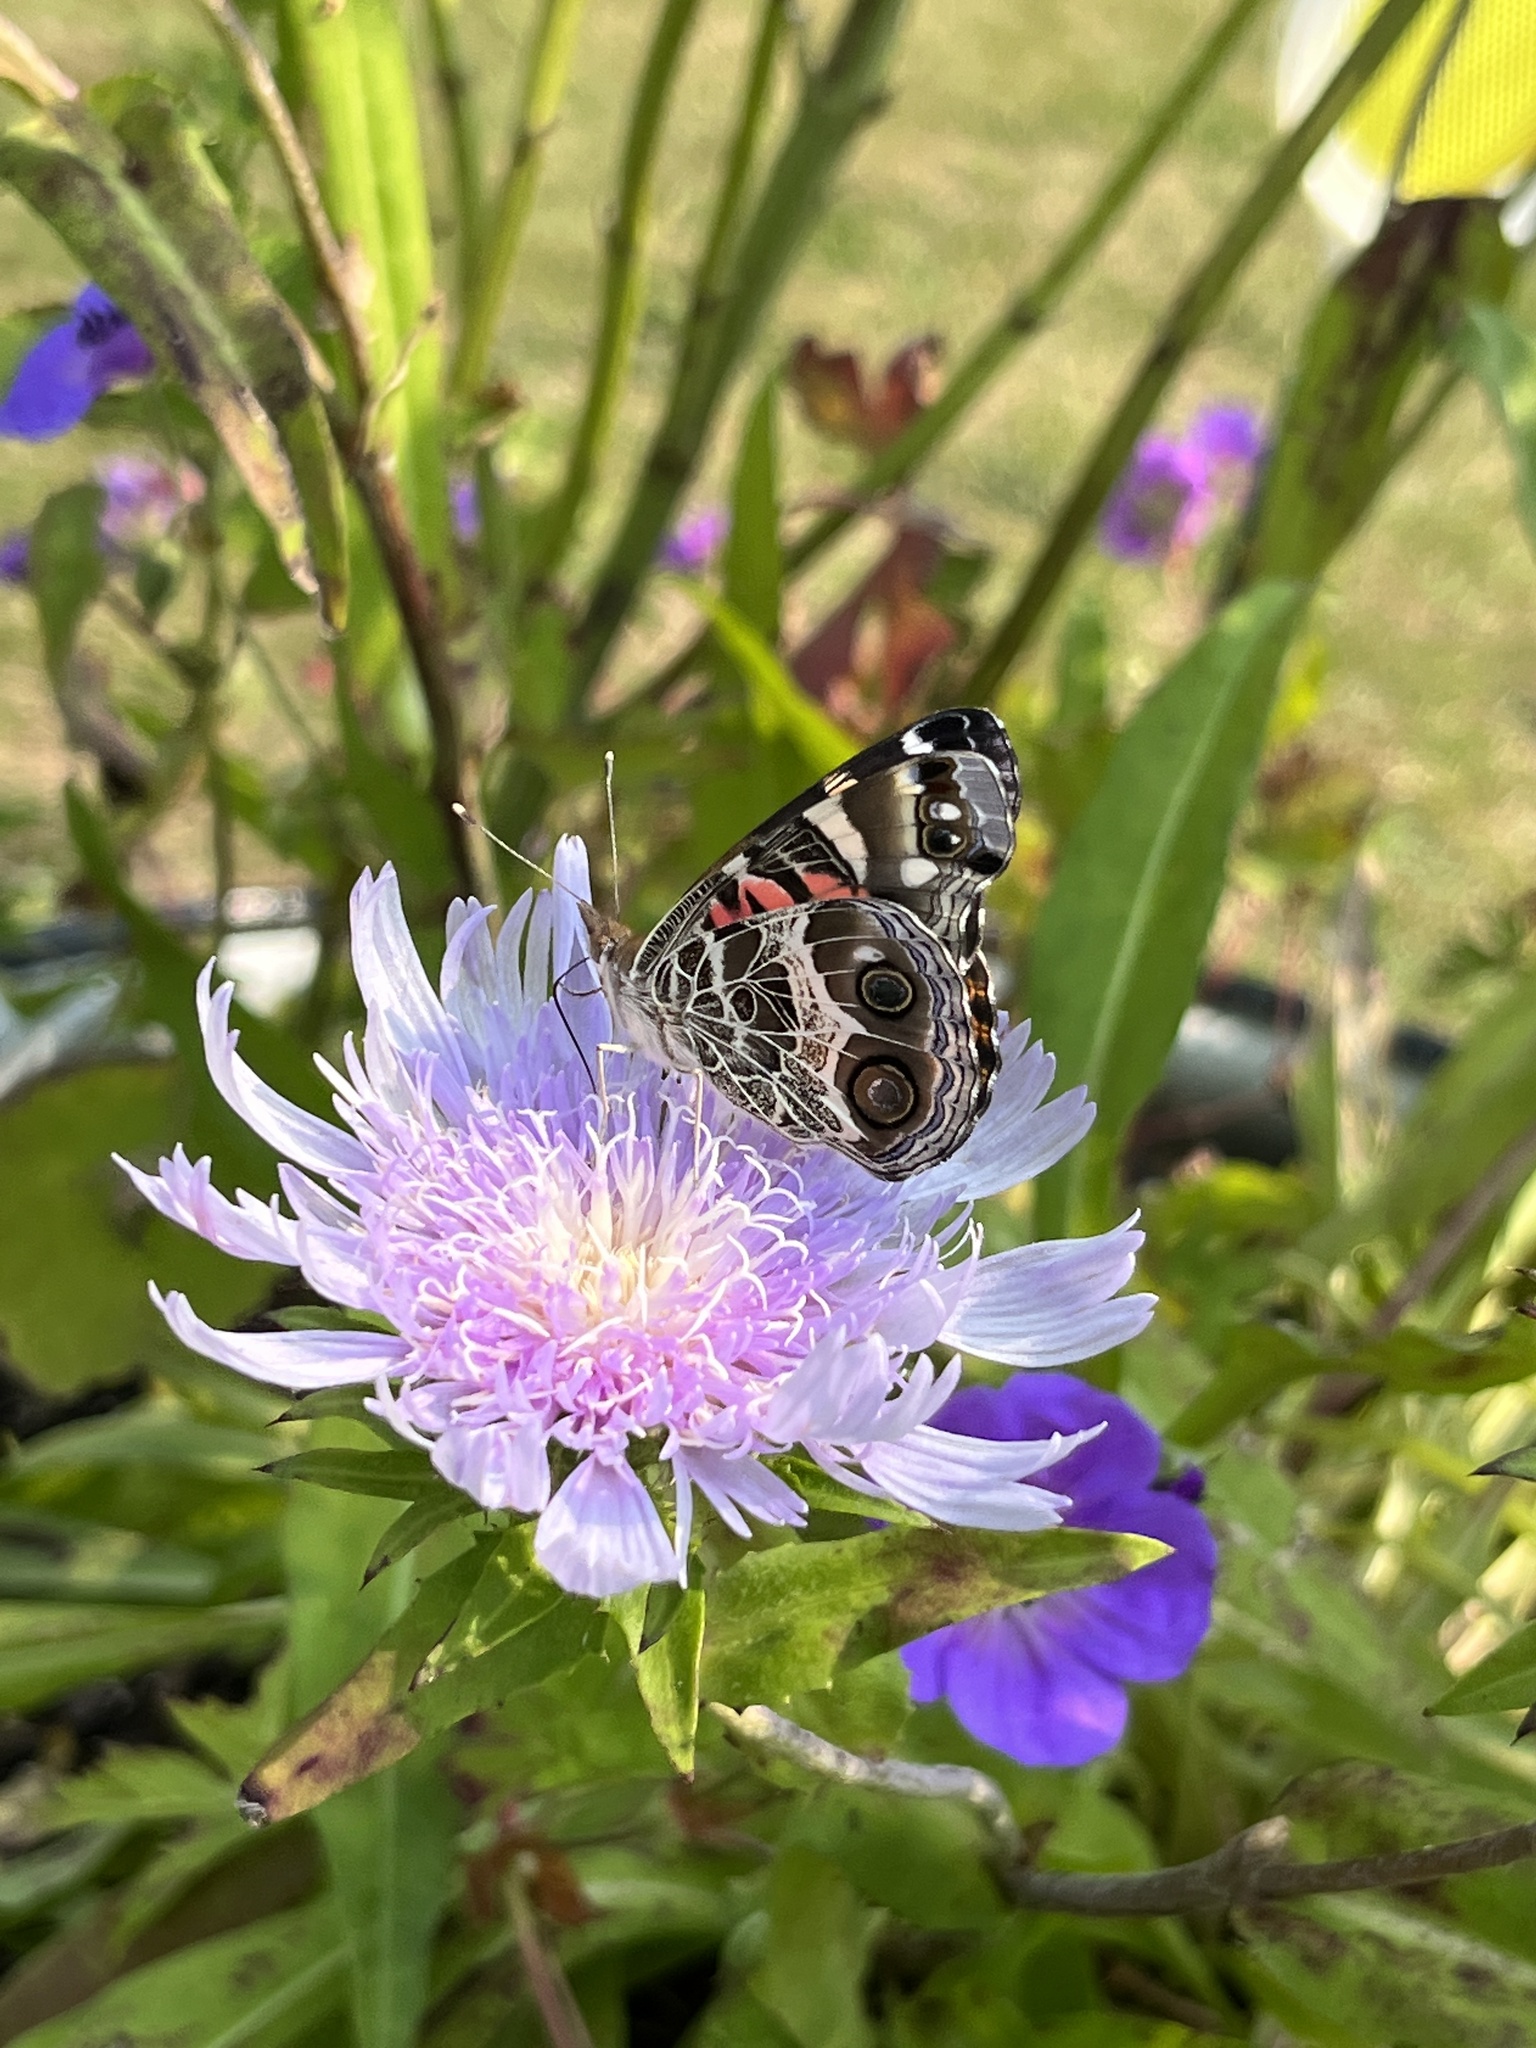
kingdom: Animalia
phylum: Arthropoda
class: Insecta
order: Lepidoptera
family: Nymphalidae
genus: Vanessa
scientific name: Vanessa virginiensis
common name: American lady
